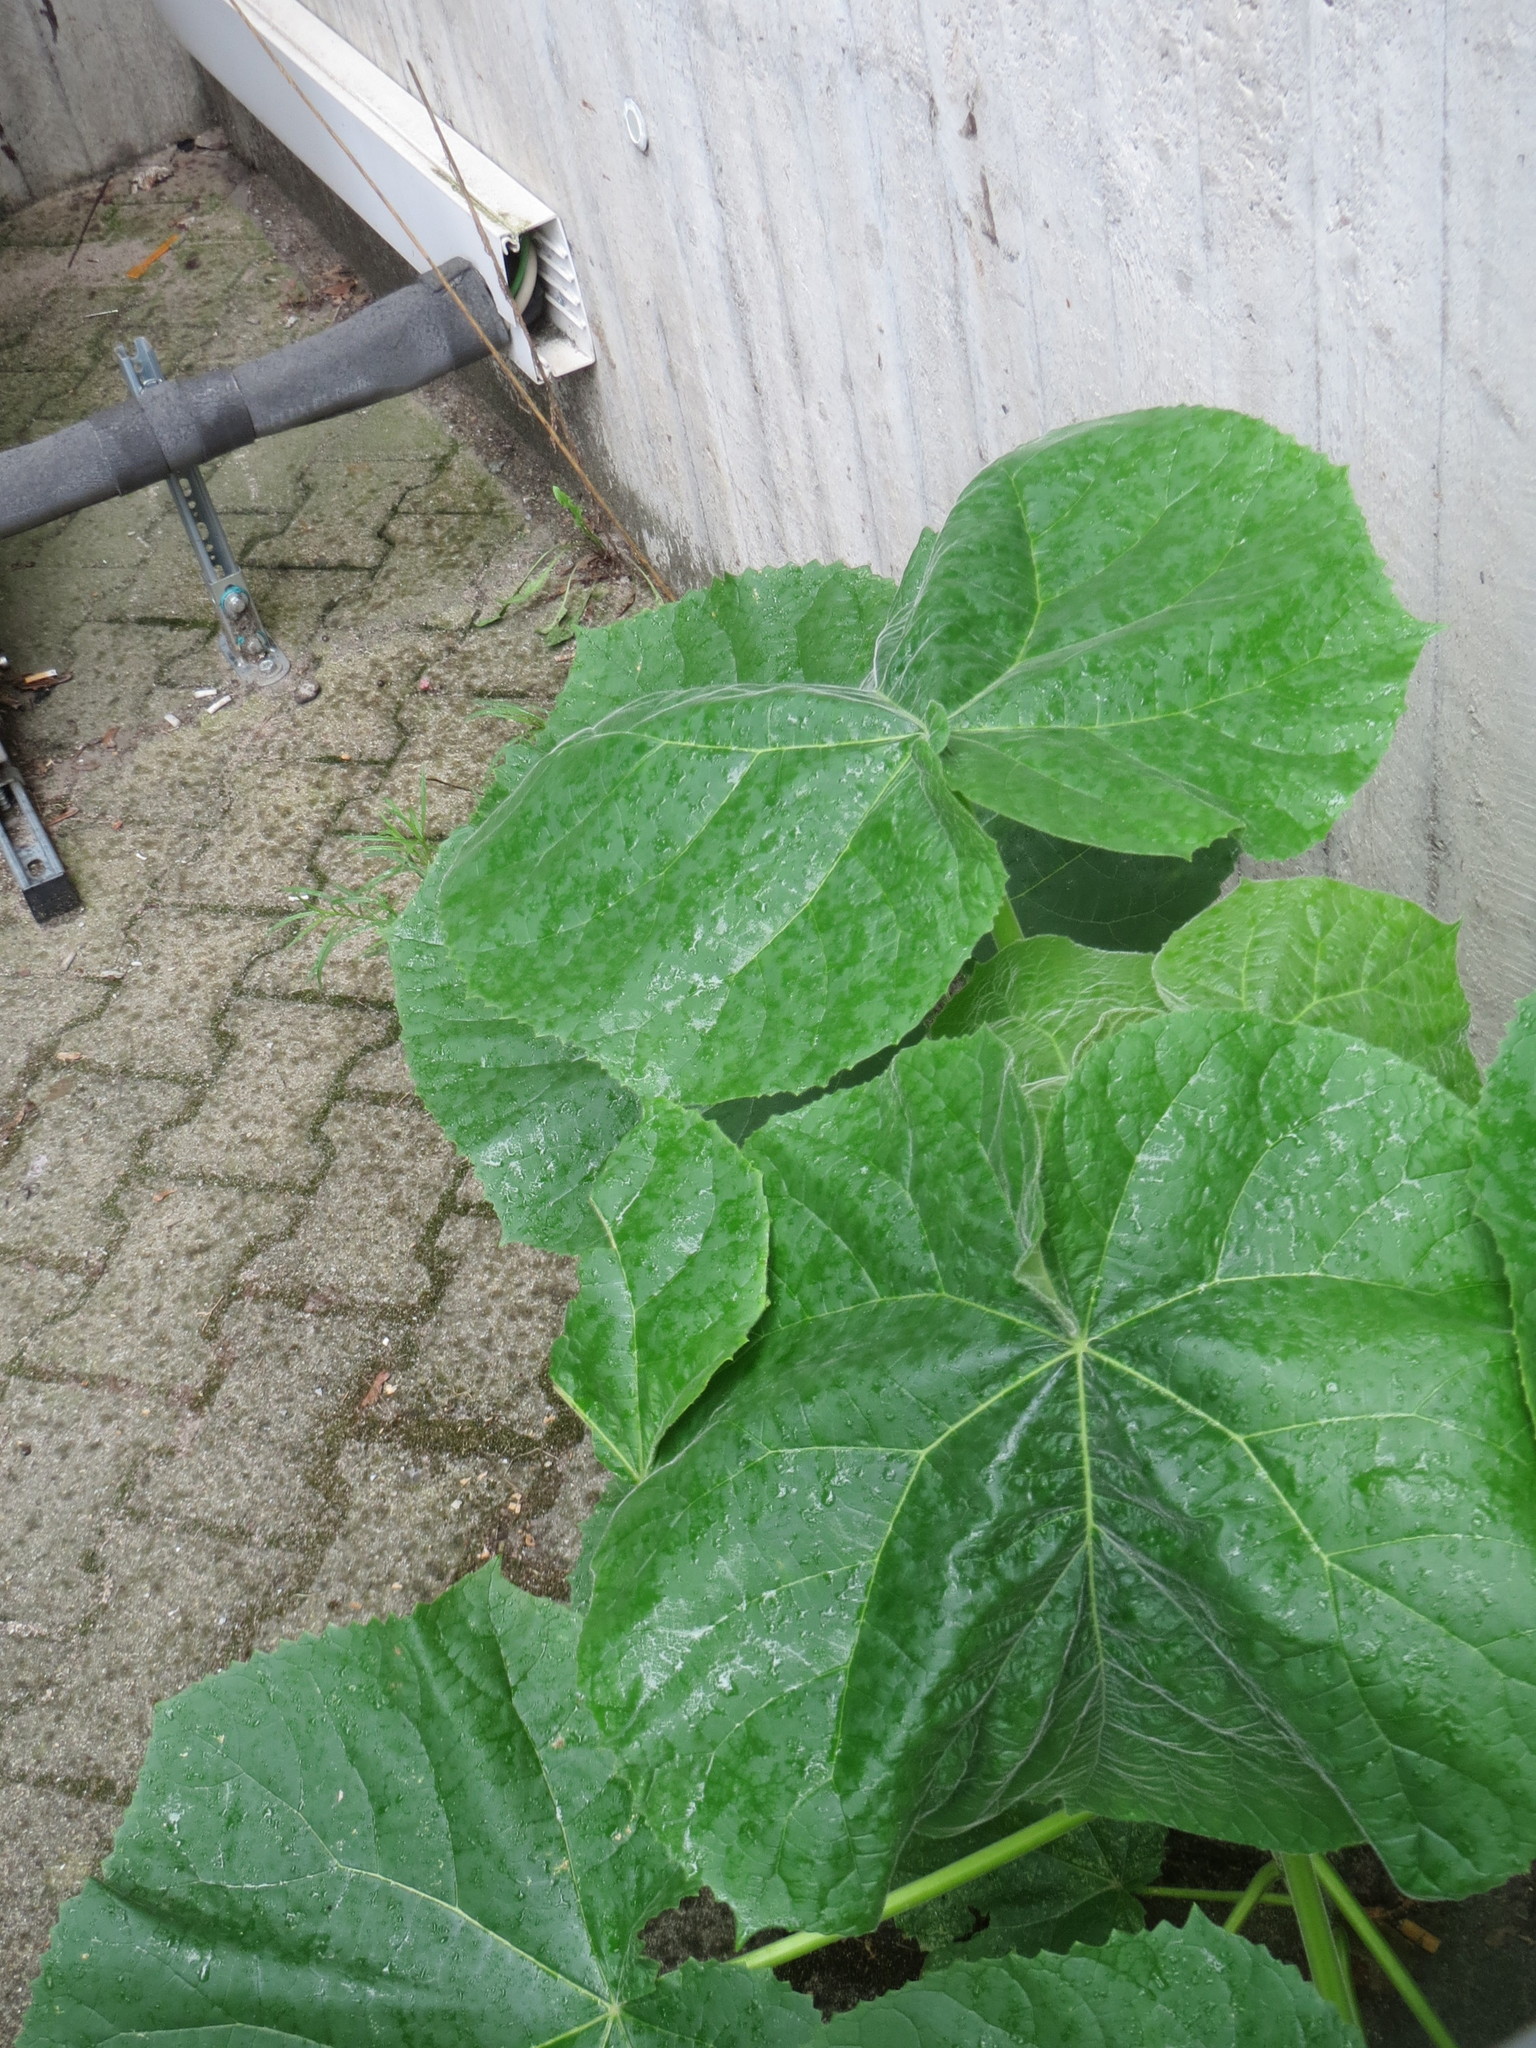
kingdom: Plantae
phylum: Tracheophyta
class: Magnoliopsida
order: Lamiales
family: Paulowniaceae
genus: Paulownia
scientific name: Paulownia tomentosa
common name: Foxglove-tree
